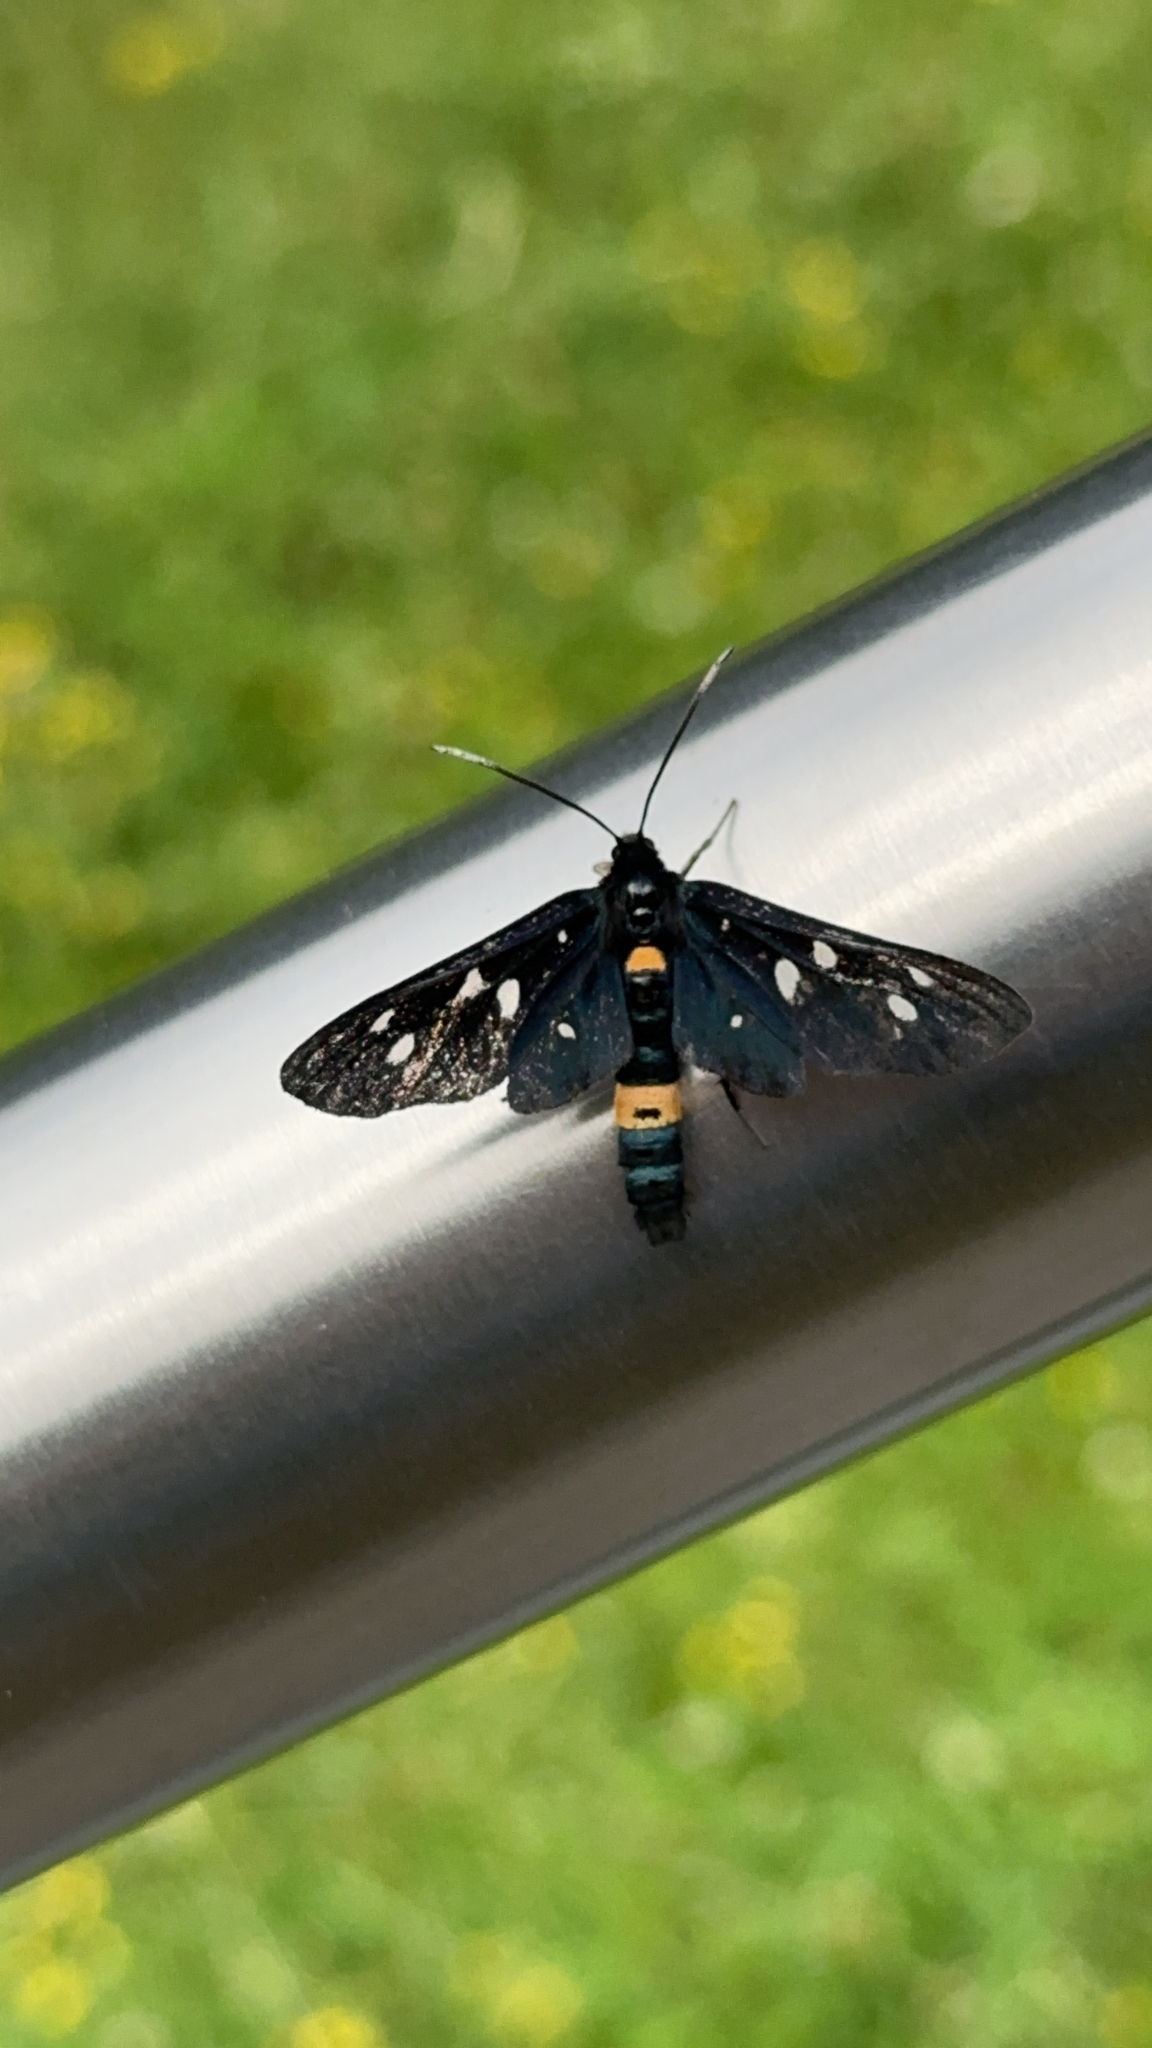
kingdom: Animalia
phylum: Arthropoda
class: Insecta
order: Lepidoptera
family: Erebidae
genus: Amata
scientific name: Amata phegea
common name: Nine-spotted
